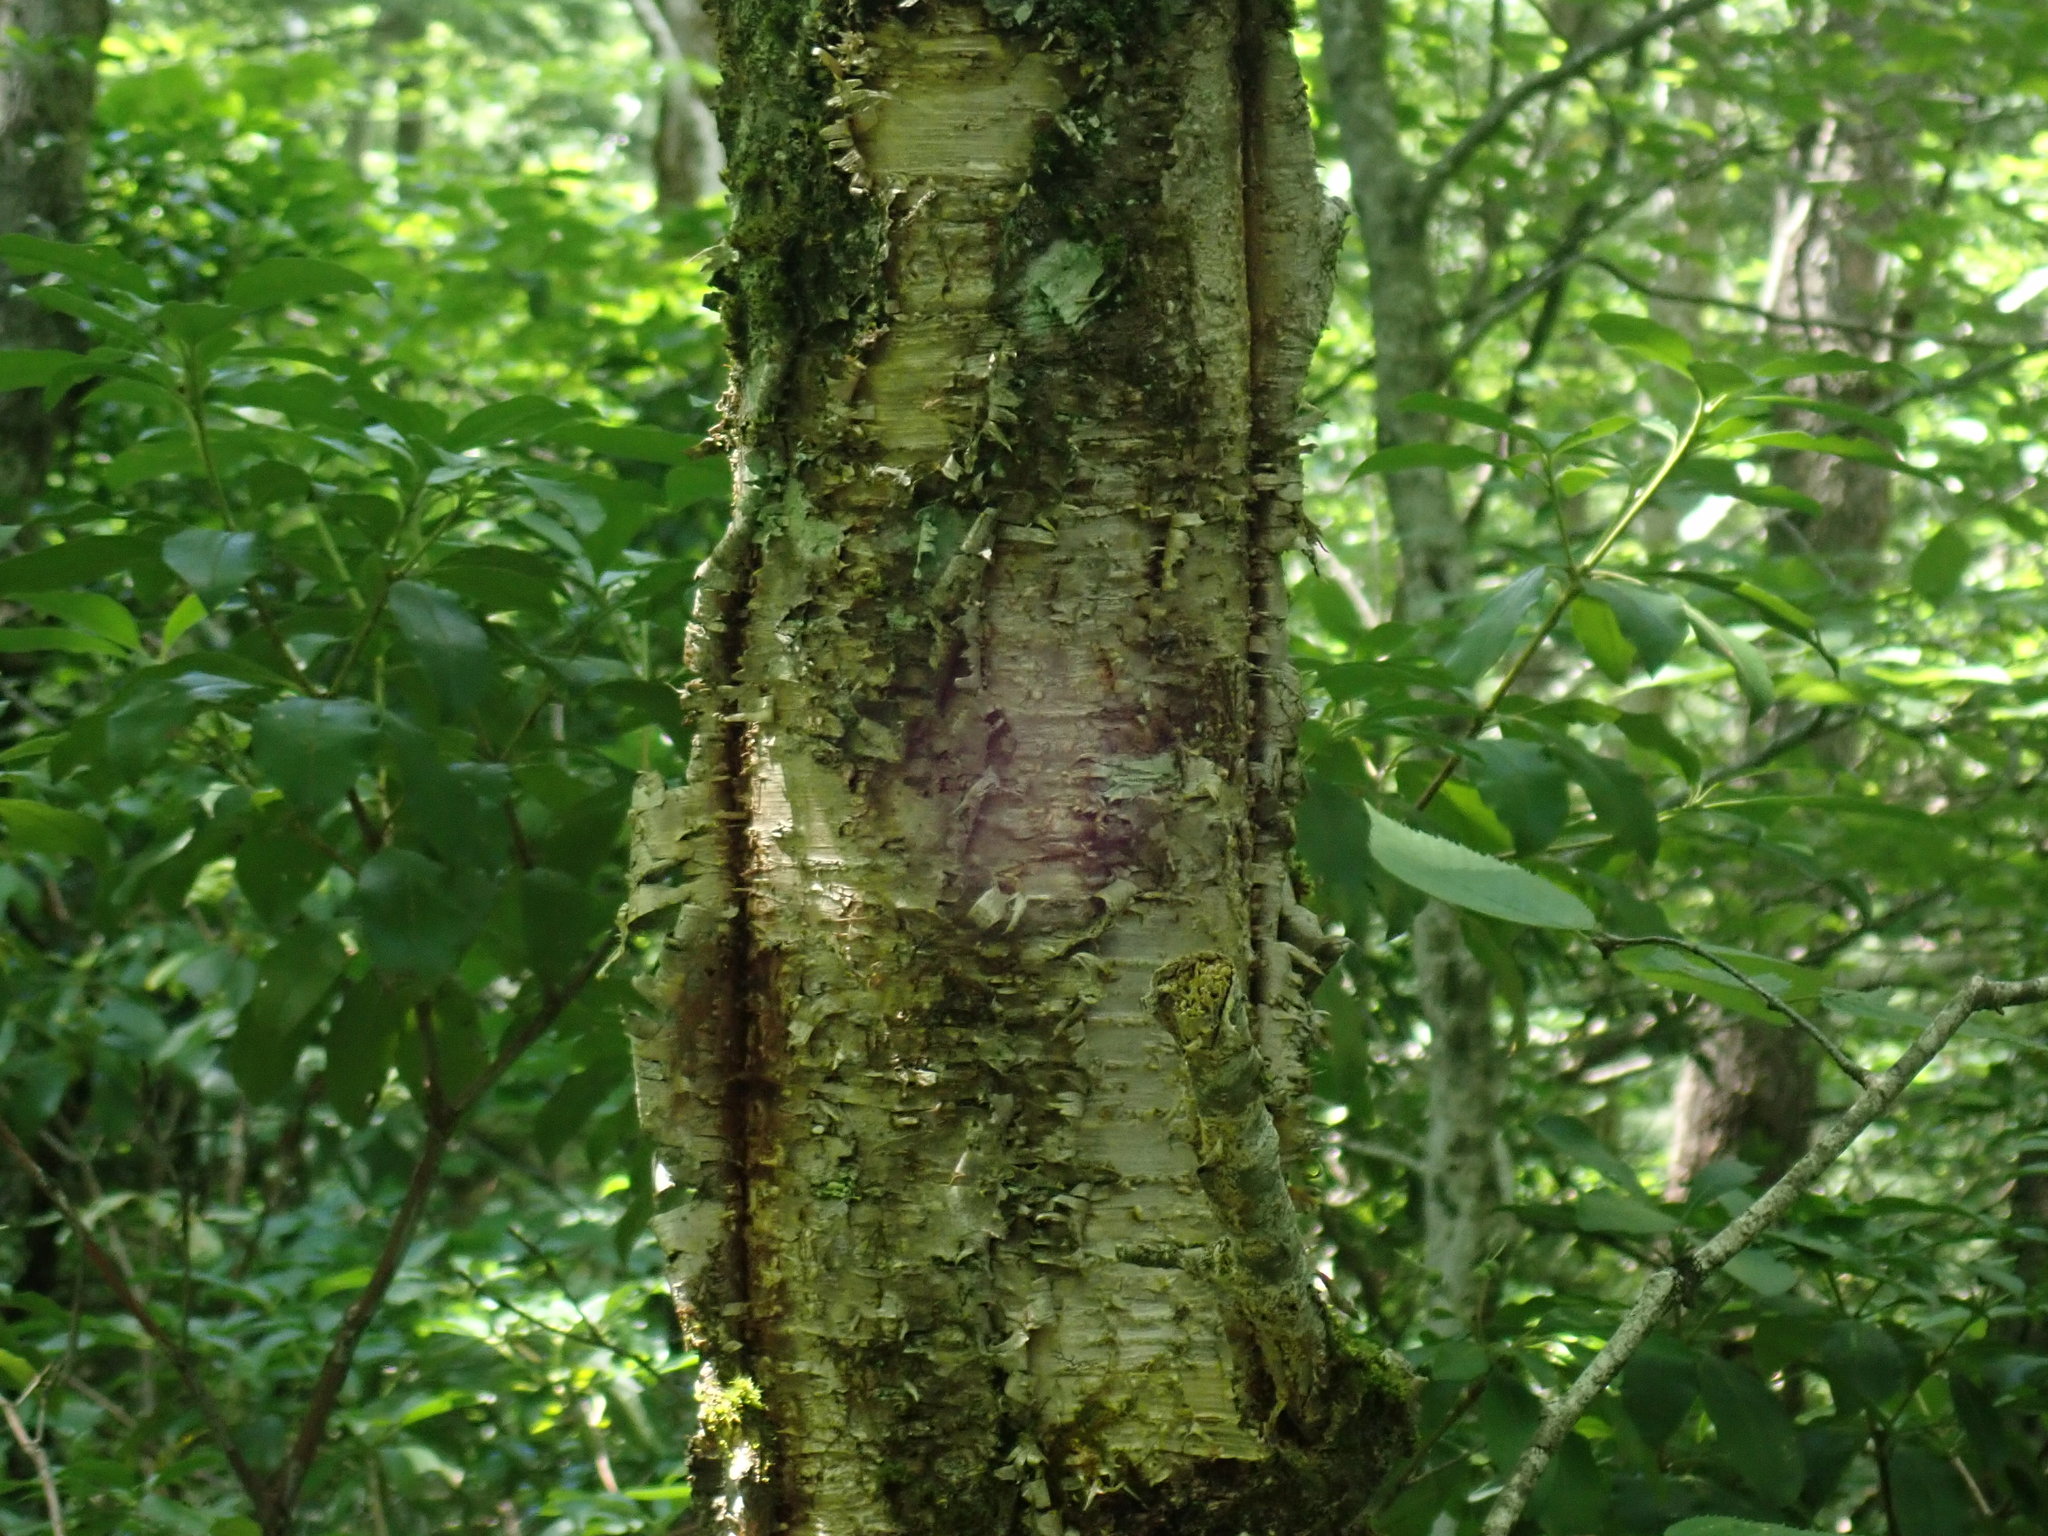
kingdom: Plantae
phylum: Tracheophyta
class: Magnoliopsida
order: Fagales
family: Betulaceae
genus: Betula
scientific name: Betula alleghaniensis
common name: Yellow birch
